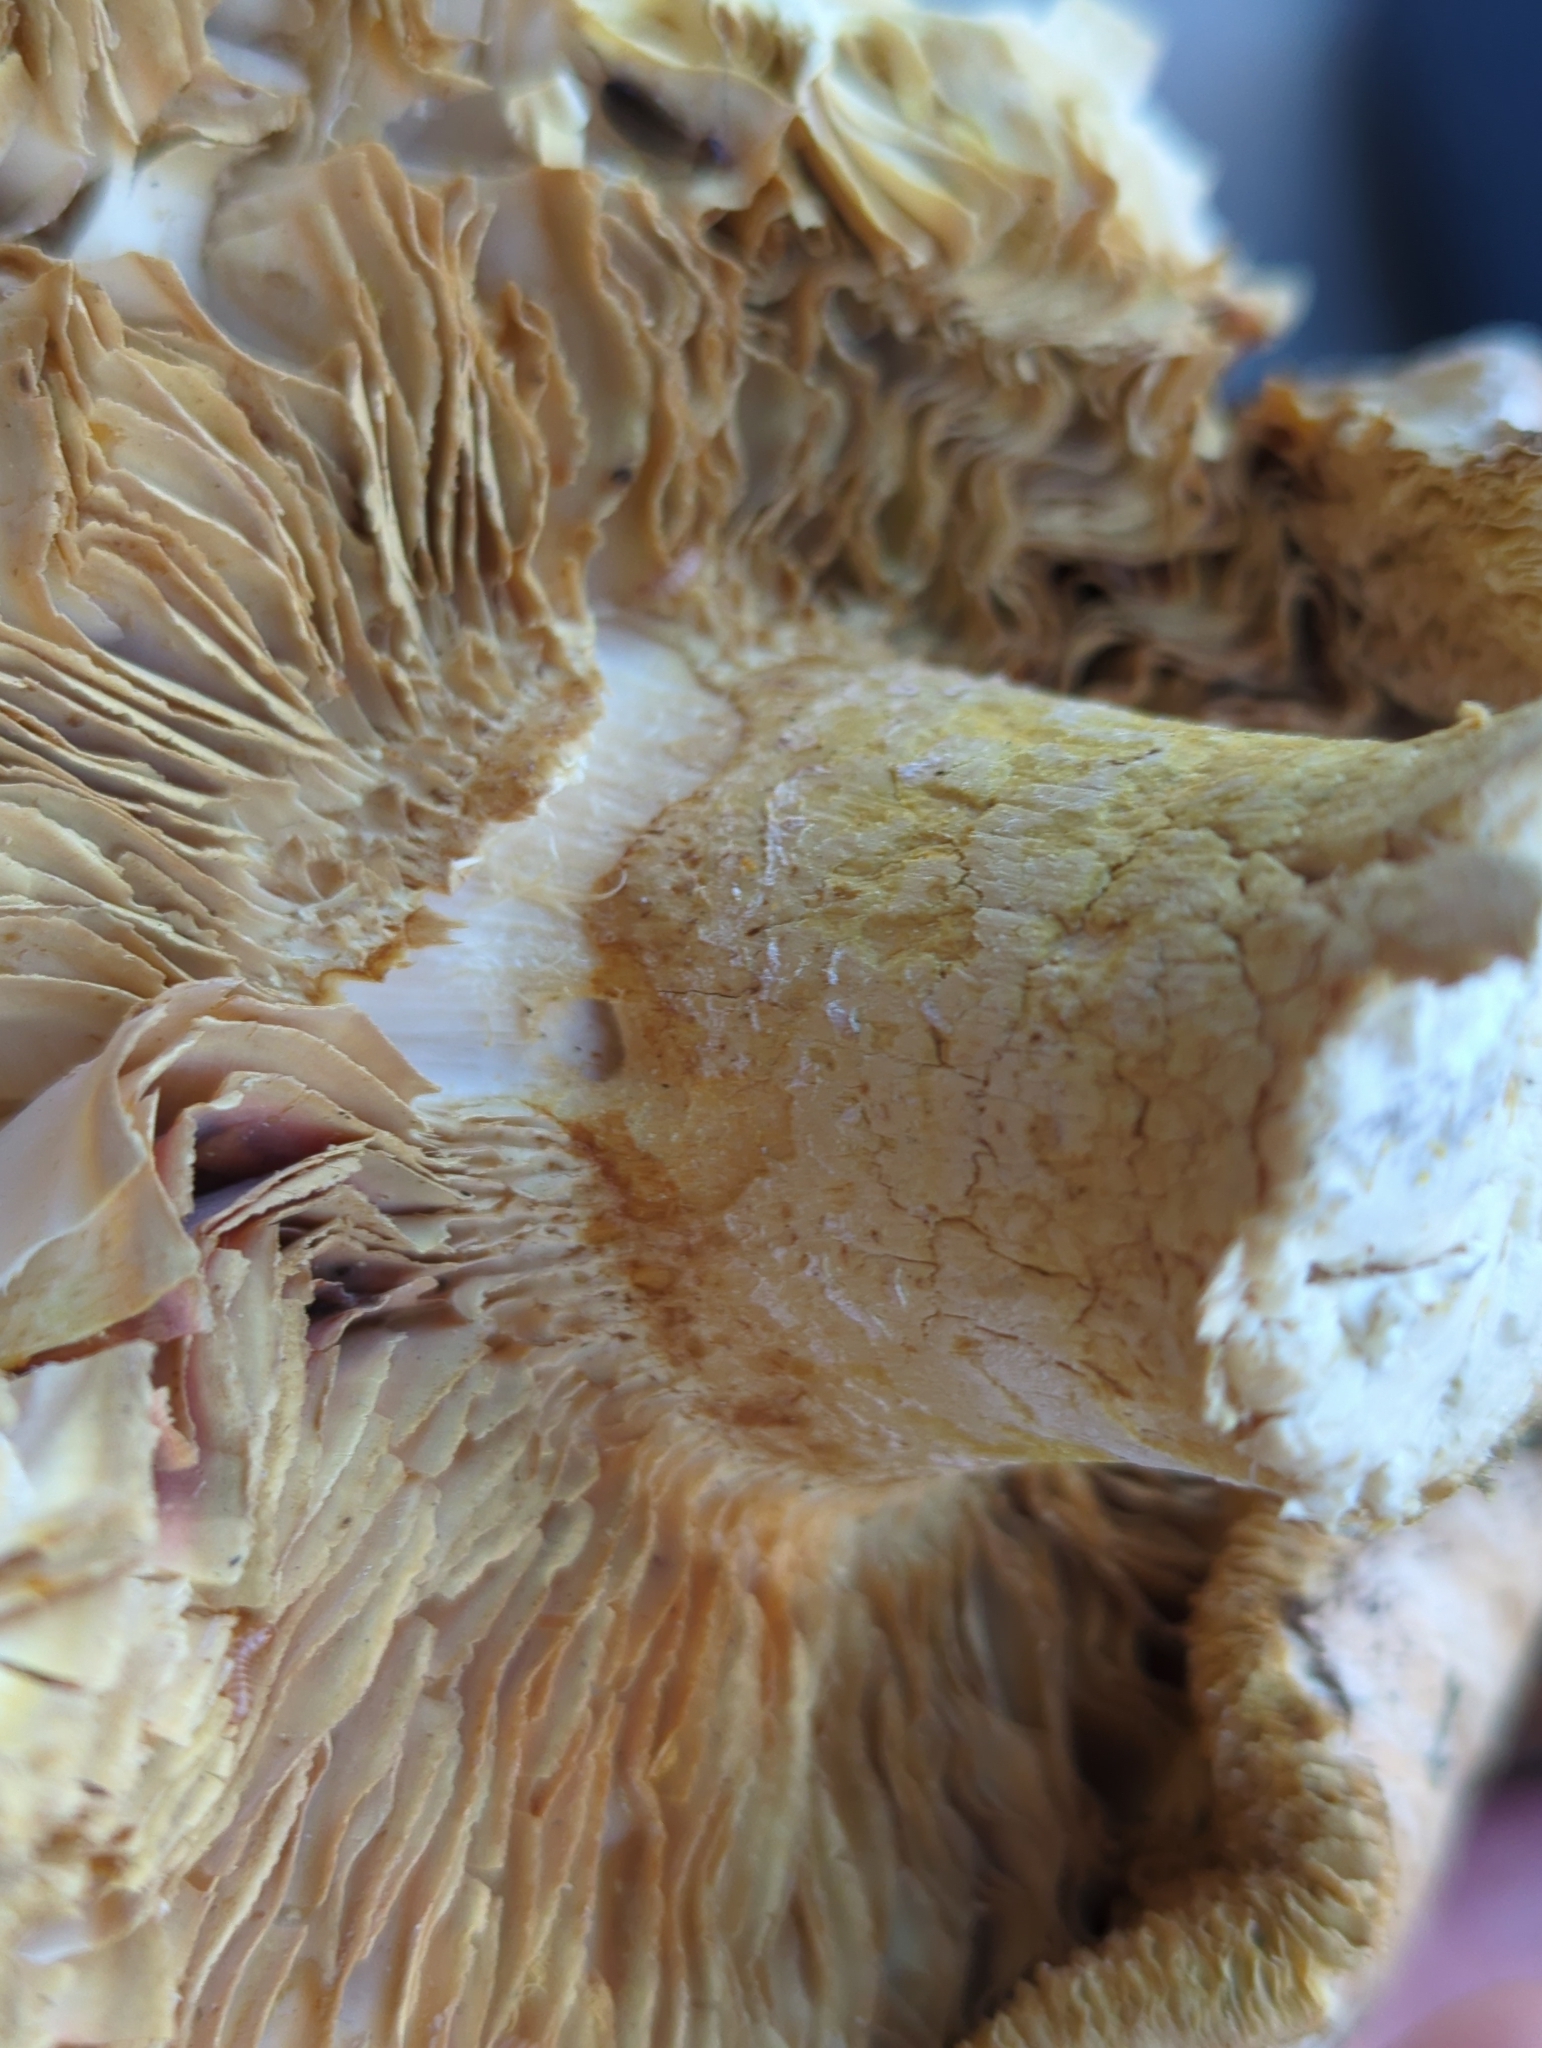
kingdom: Fungi
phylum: Basidiomycota
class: Agaricomycetes
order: Gloeophyllales
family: Gloeophyllaceae
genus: Neolentinus
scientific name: Neolentinus ponderosus
